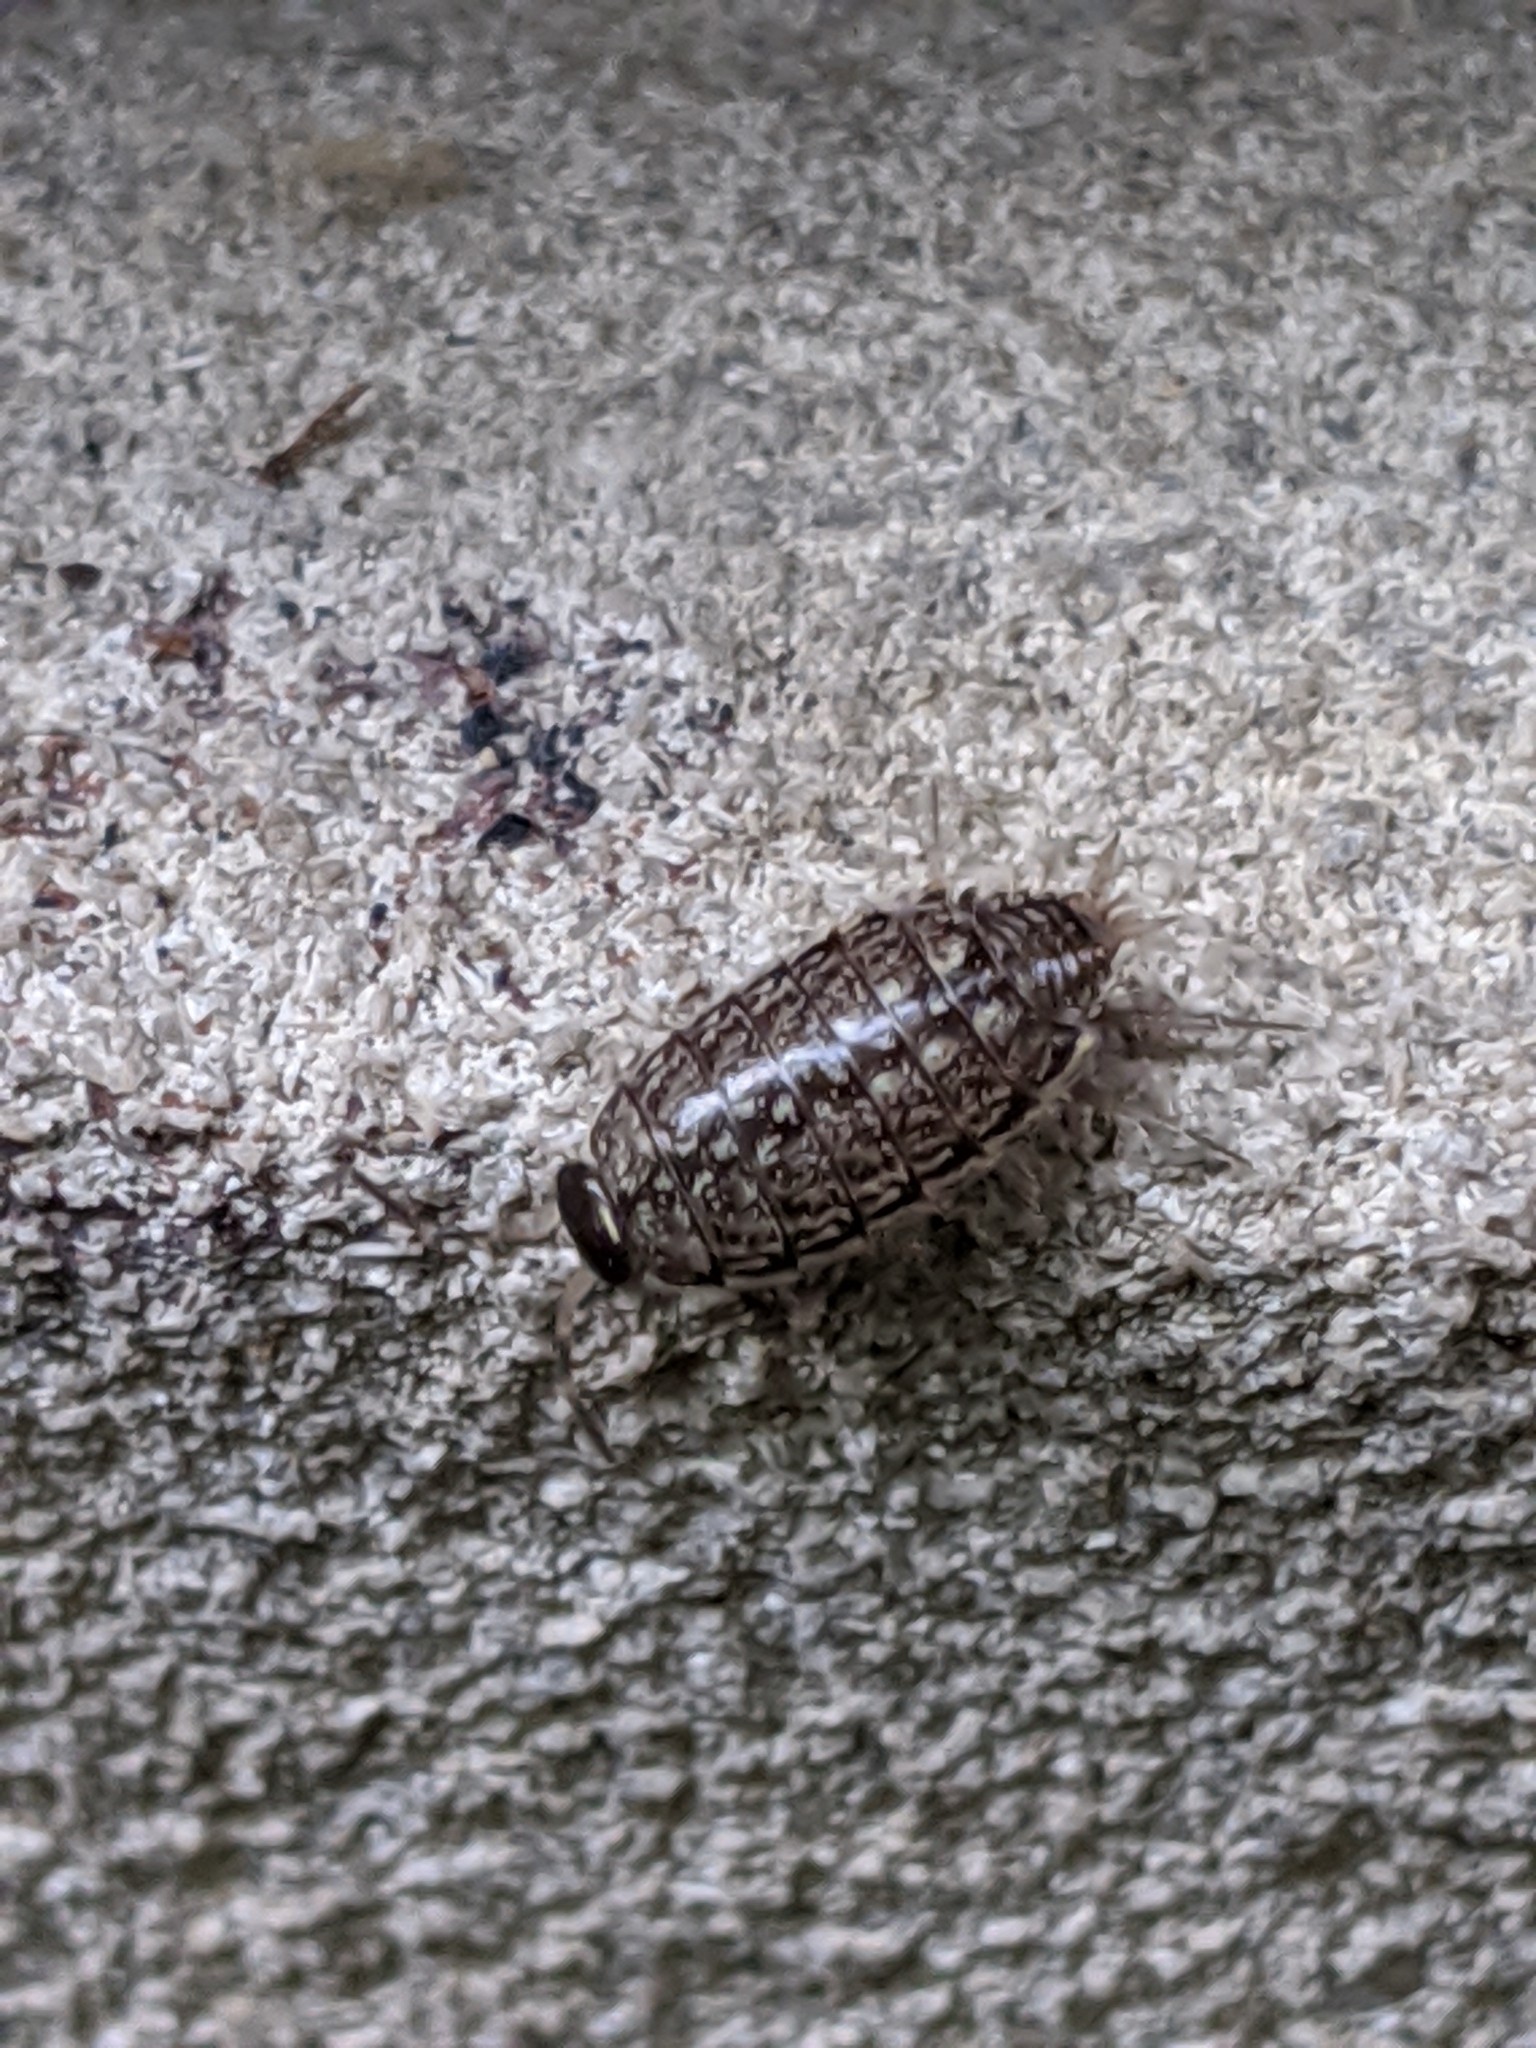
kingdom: Animalia
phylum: Arthropoda
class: Malacostraca
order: Isopoda
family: Philosciidae
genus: Philoscia
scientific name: Philoscia muscorum
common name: Common striped woodlouse
